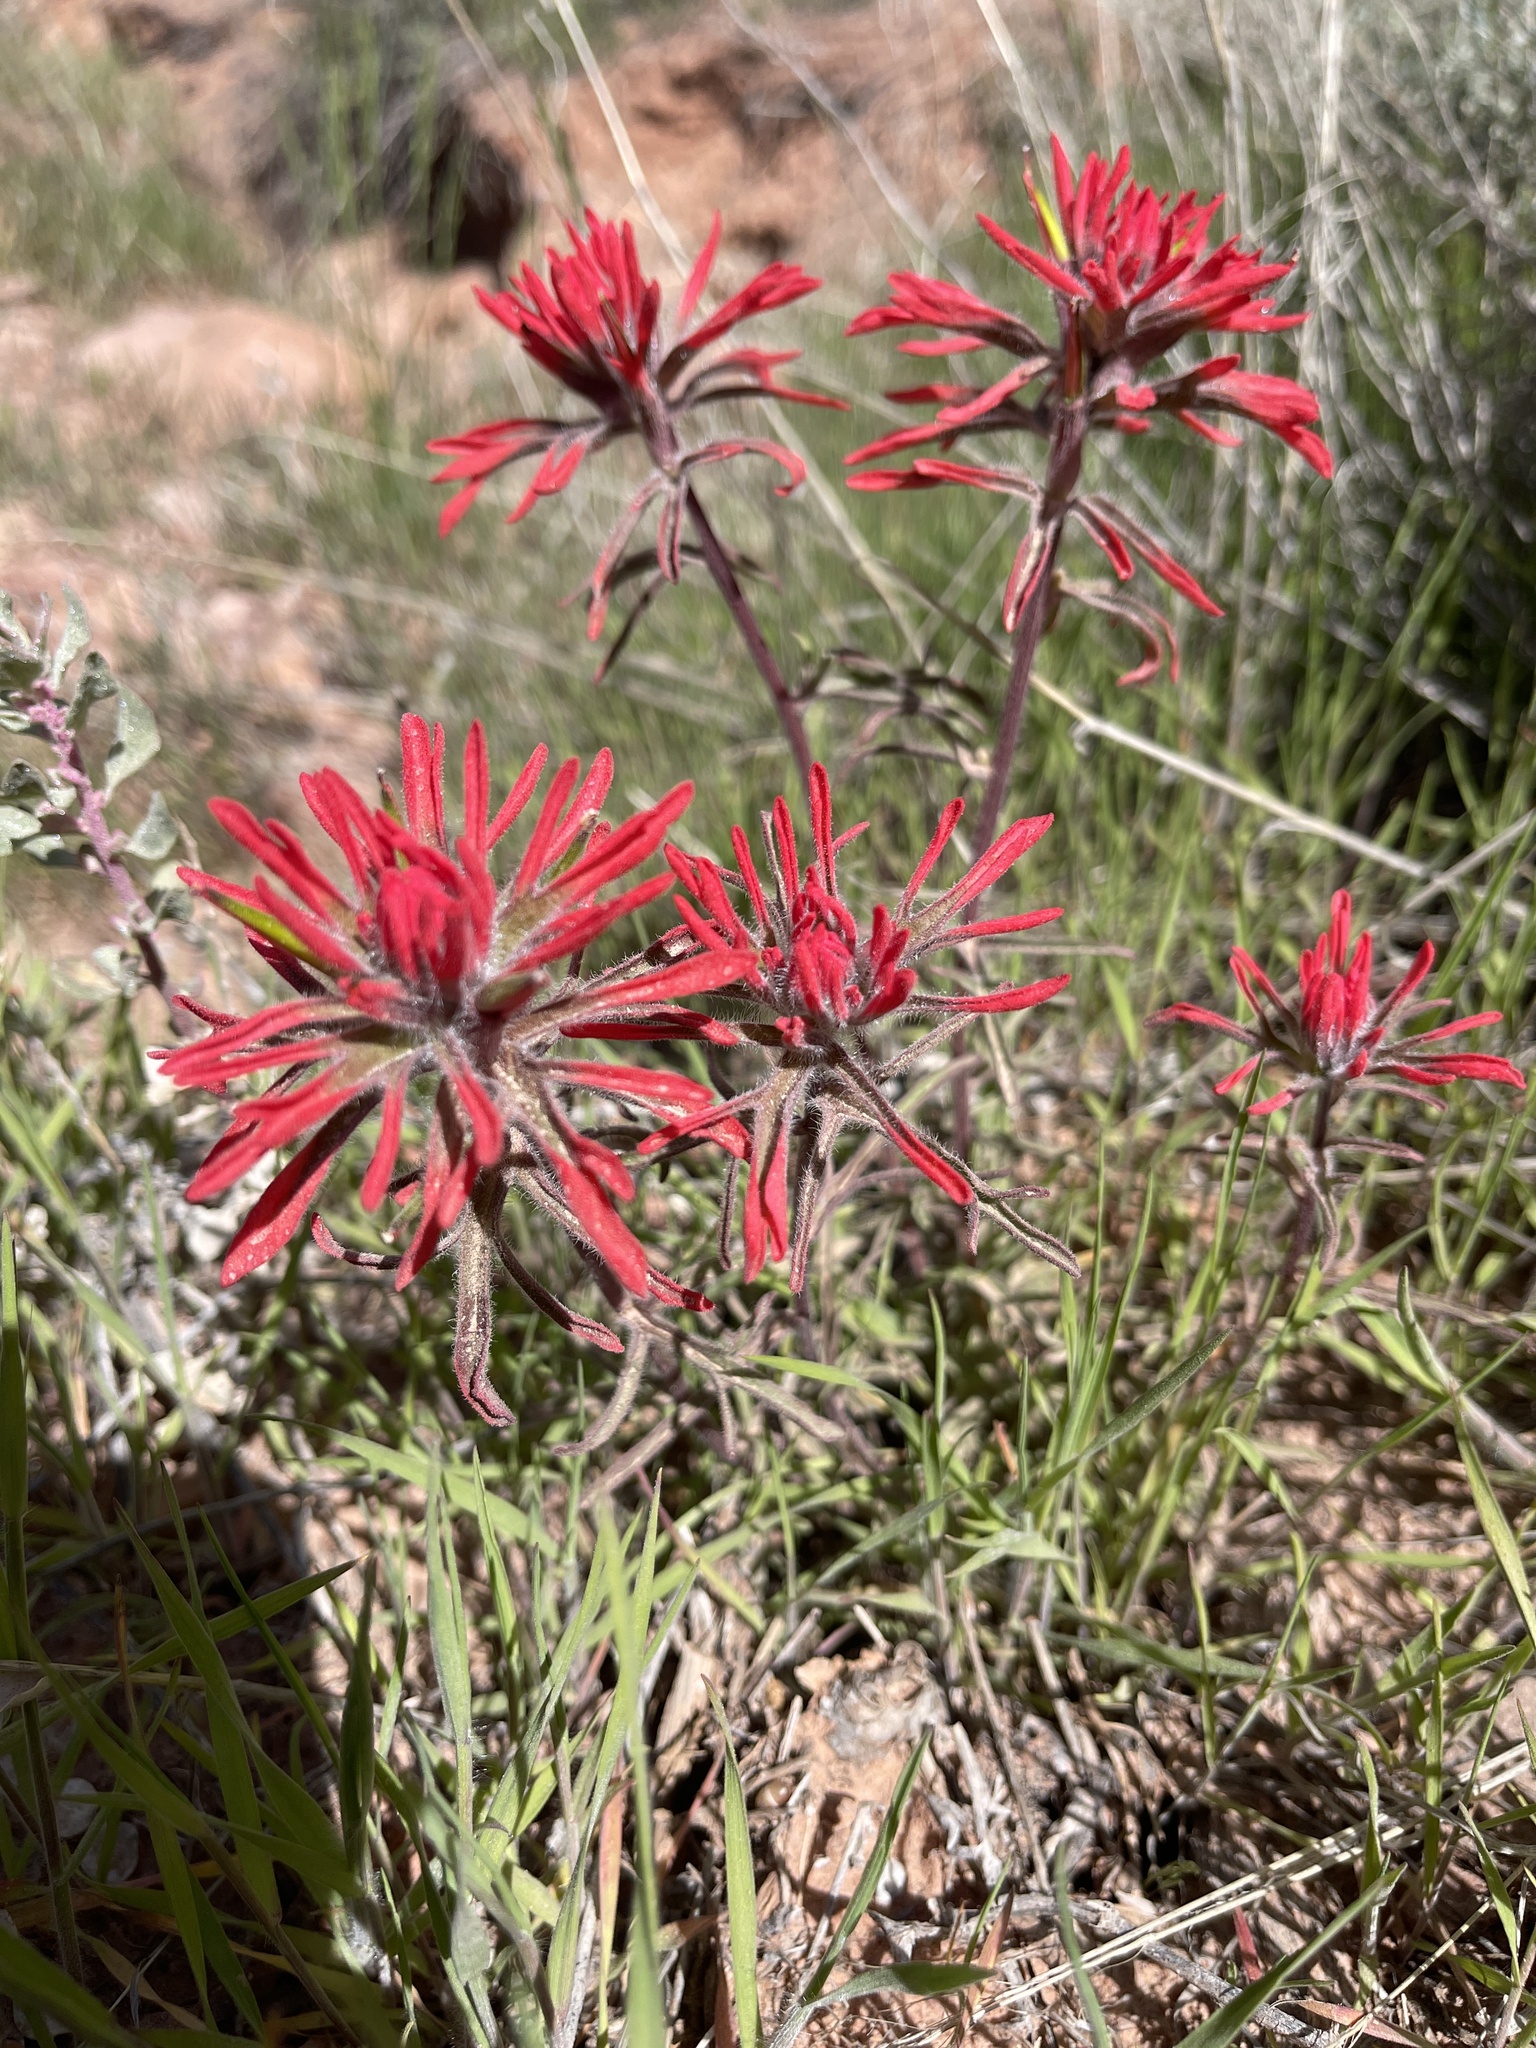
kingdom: Plantae
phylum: Tracheophyta
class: Magnoliopsida
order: Lamiales
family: Orobanchaceae
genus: Castilleja
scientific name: Castilleja chromosa
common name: Desert paintbrush
